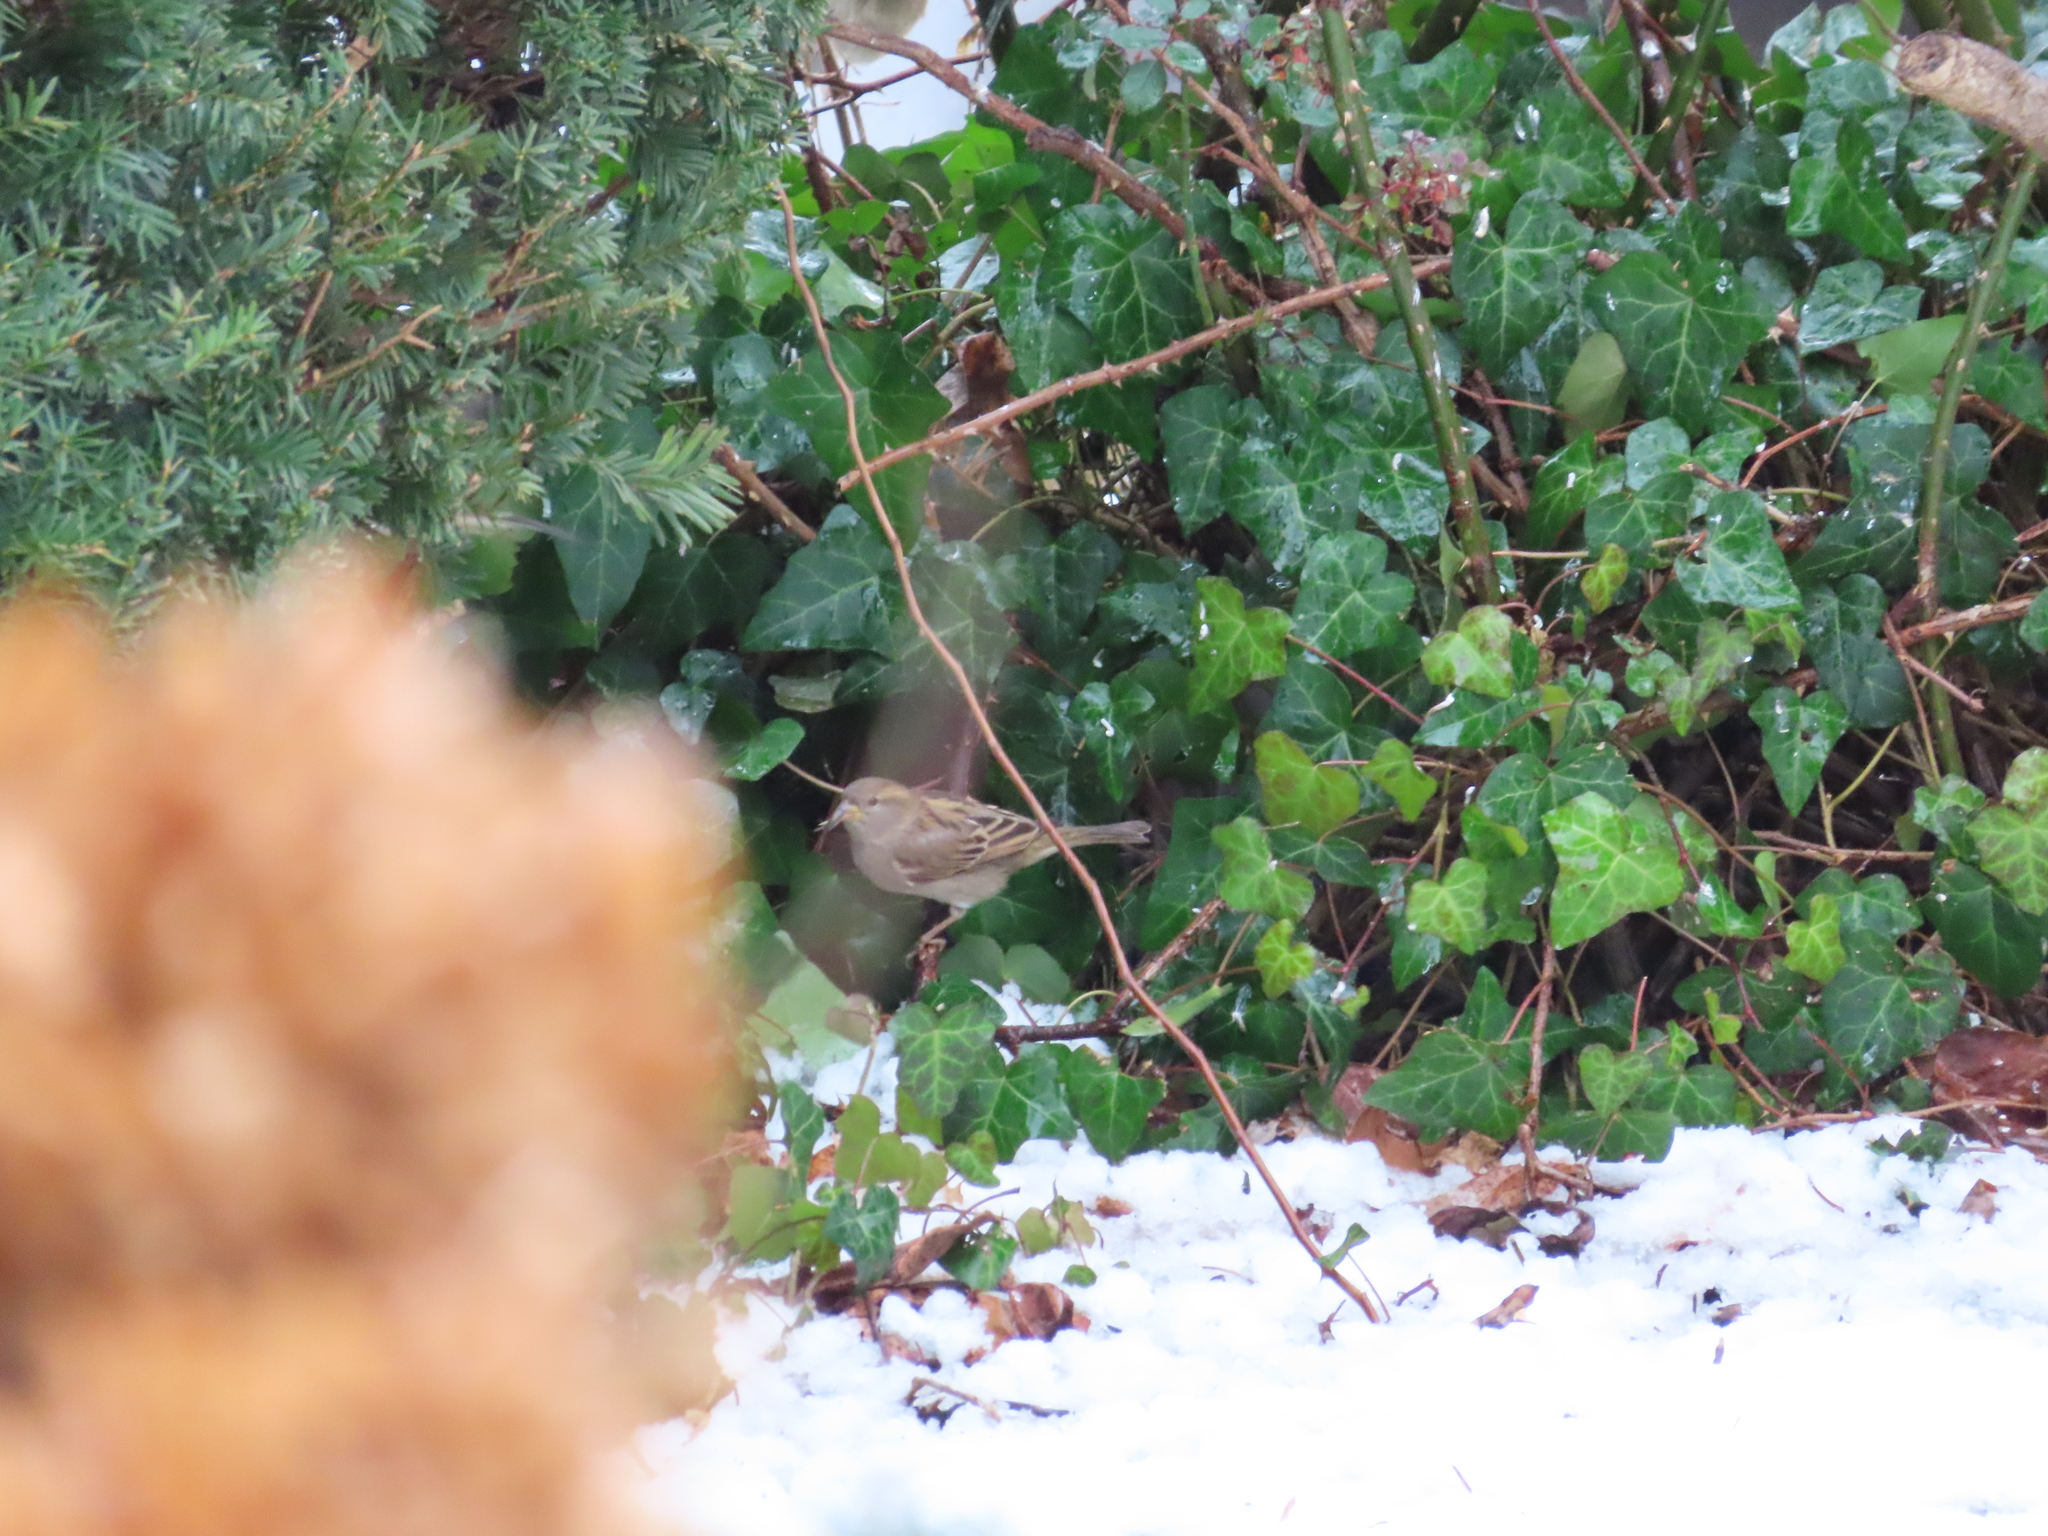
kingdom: Animalia
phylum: Chordata
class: Aves
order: Passeriformes
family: Passeridae
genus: Passer
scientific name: Passer domesticus
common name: House sparrow
